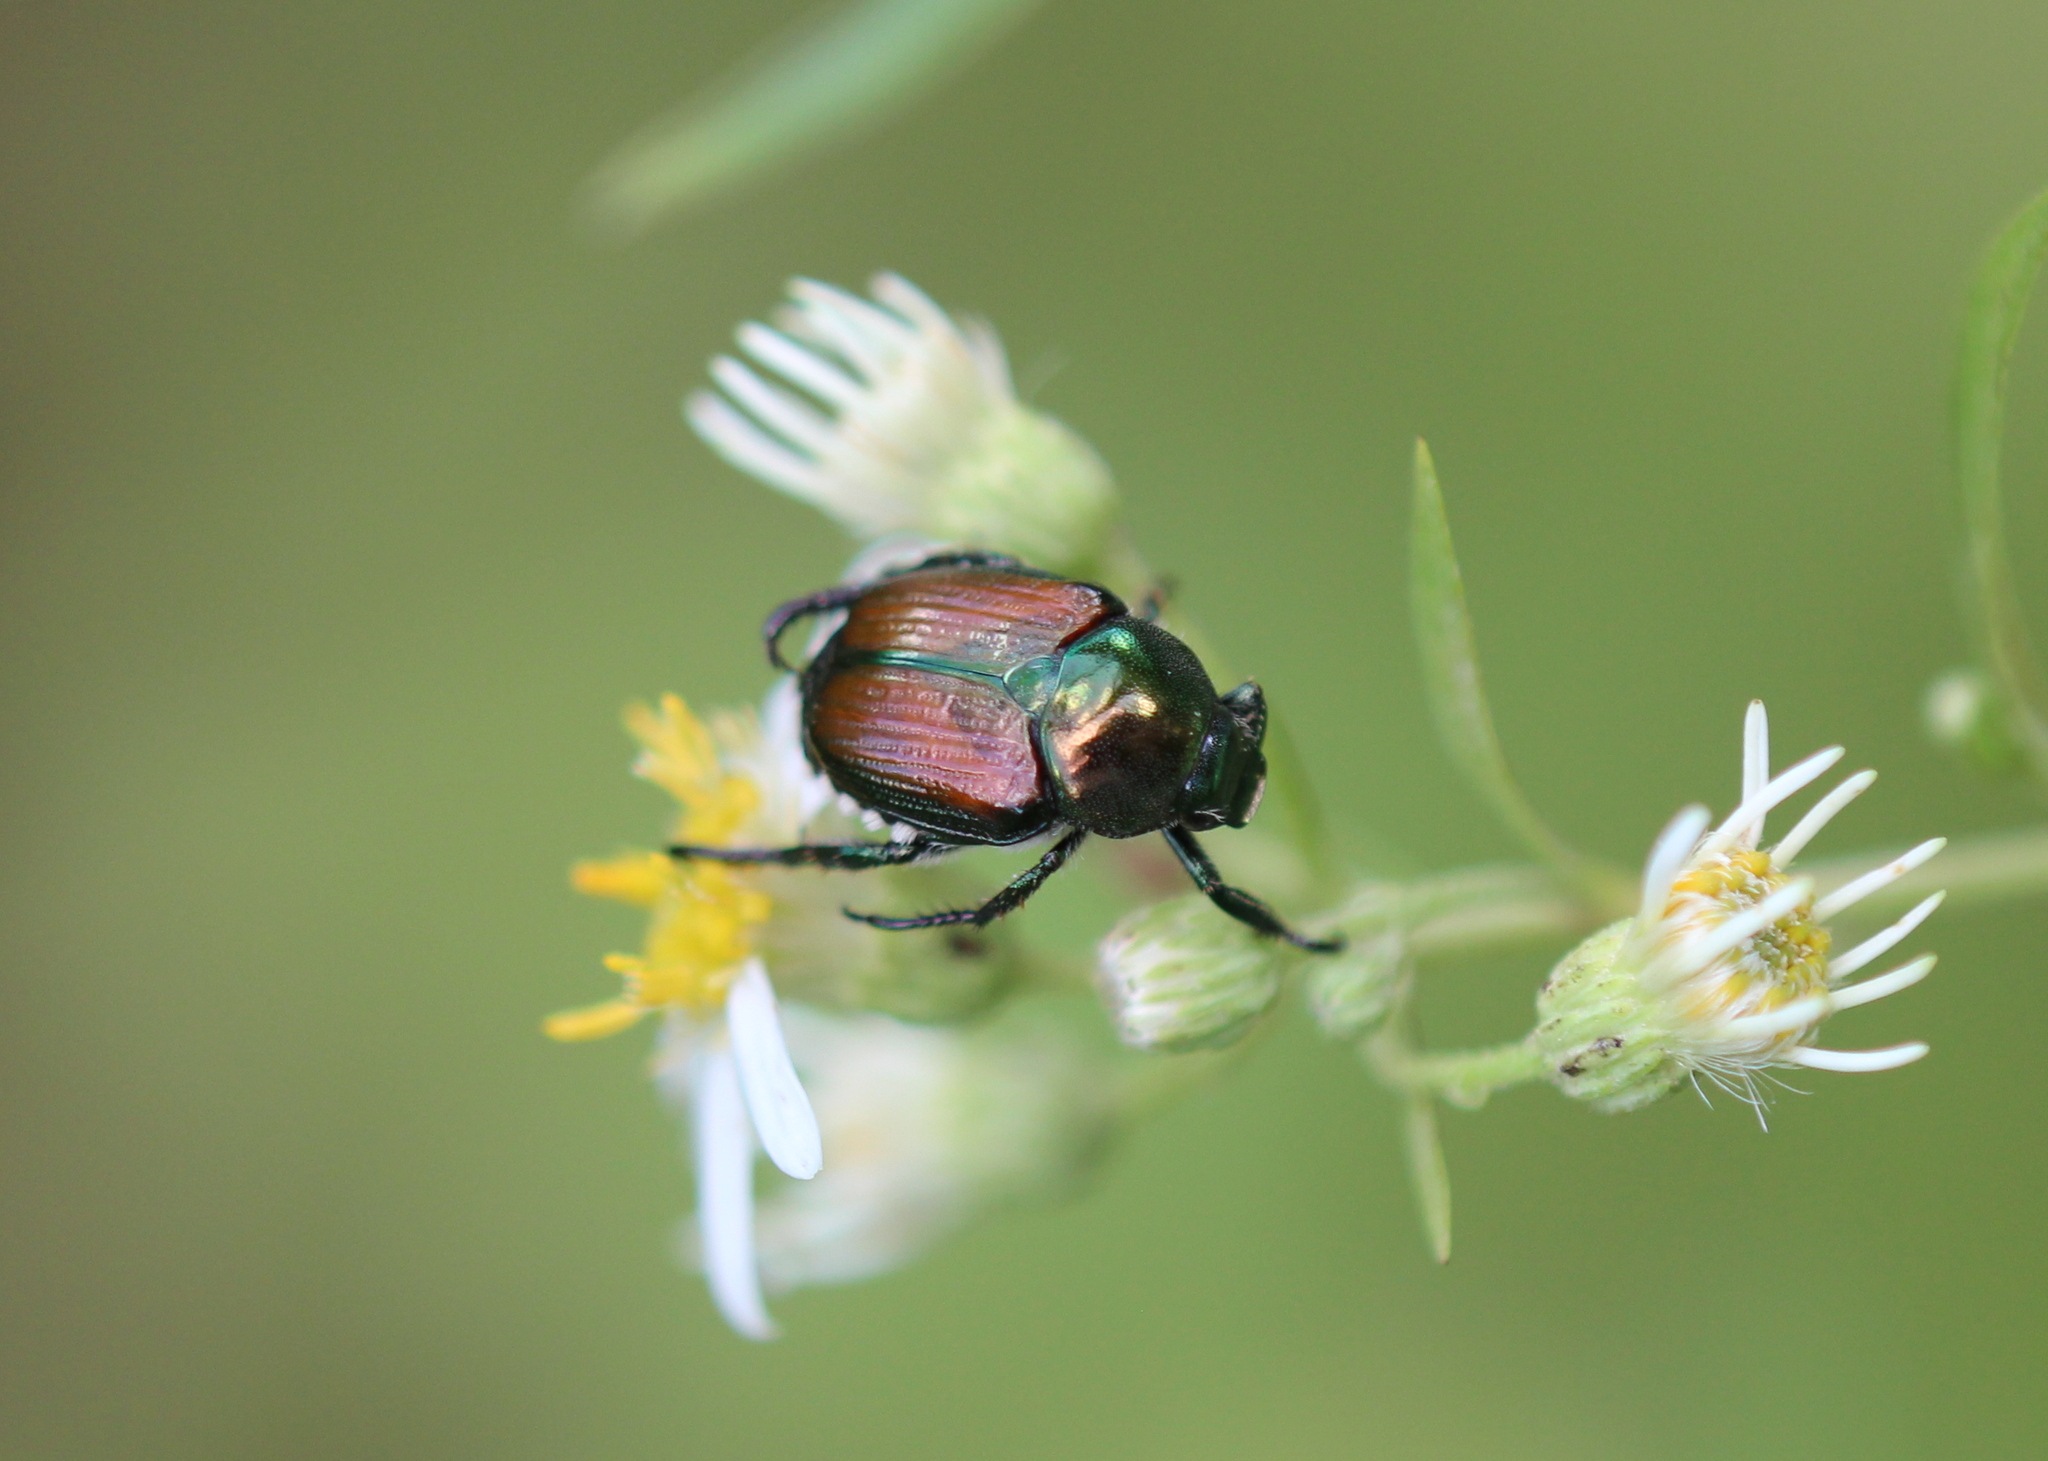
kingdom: Animalia
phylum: Arthropoda
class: Insecta
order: Coleoptera
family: Scarabaeidae
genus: Popillia
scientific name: Popillia japonica
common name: Japanese beetle
